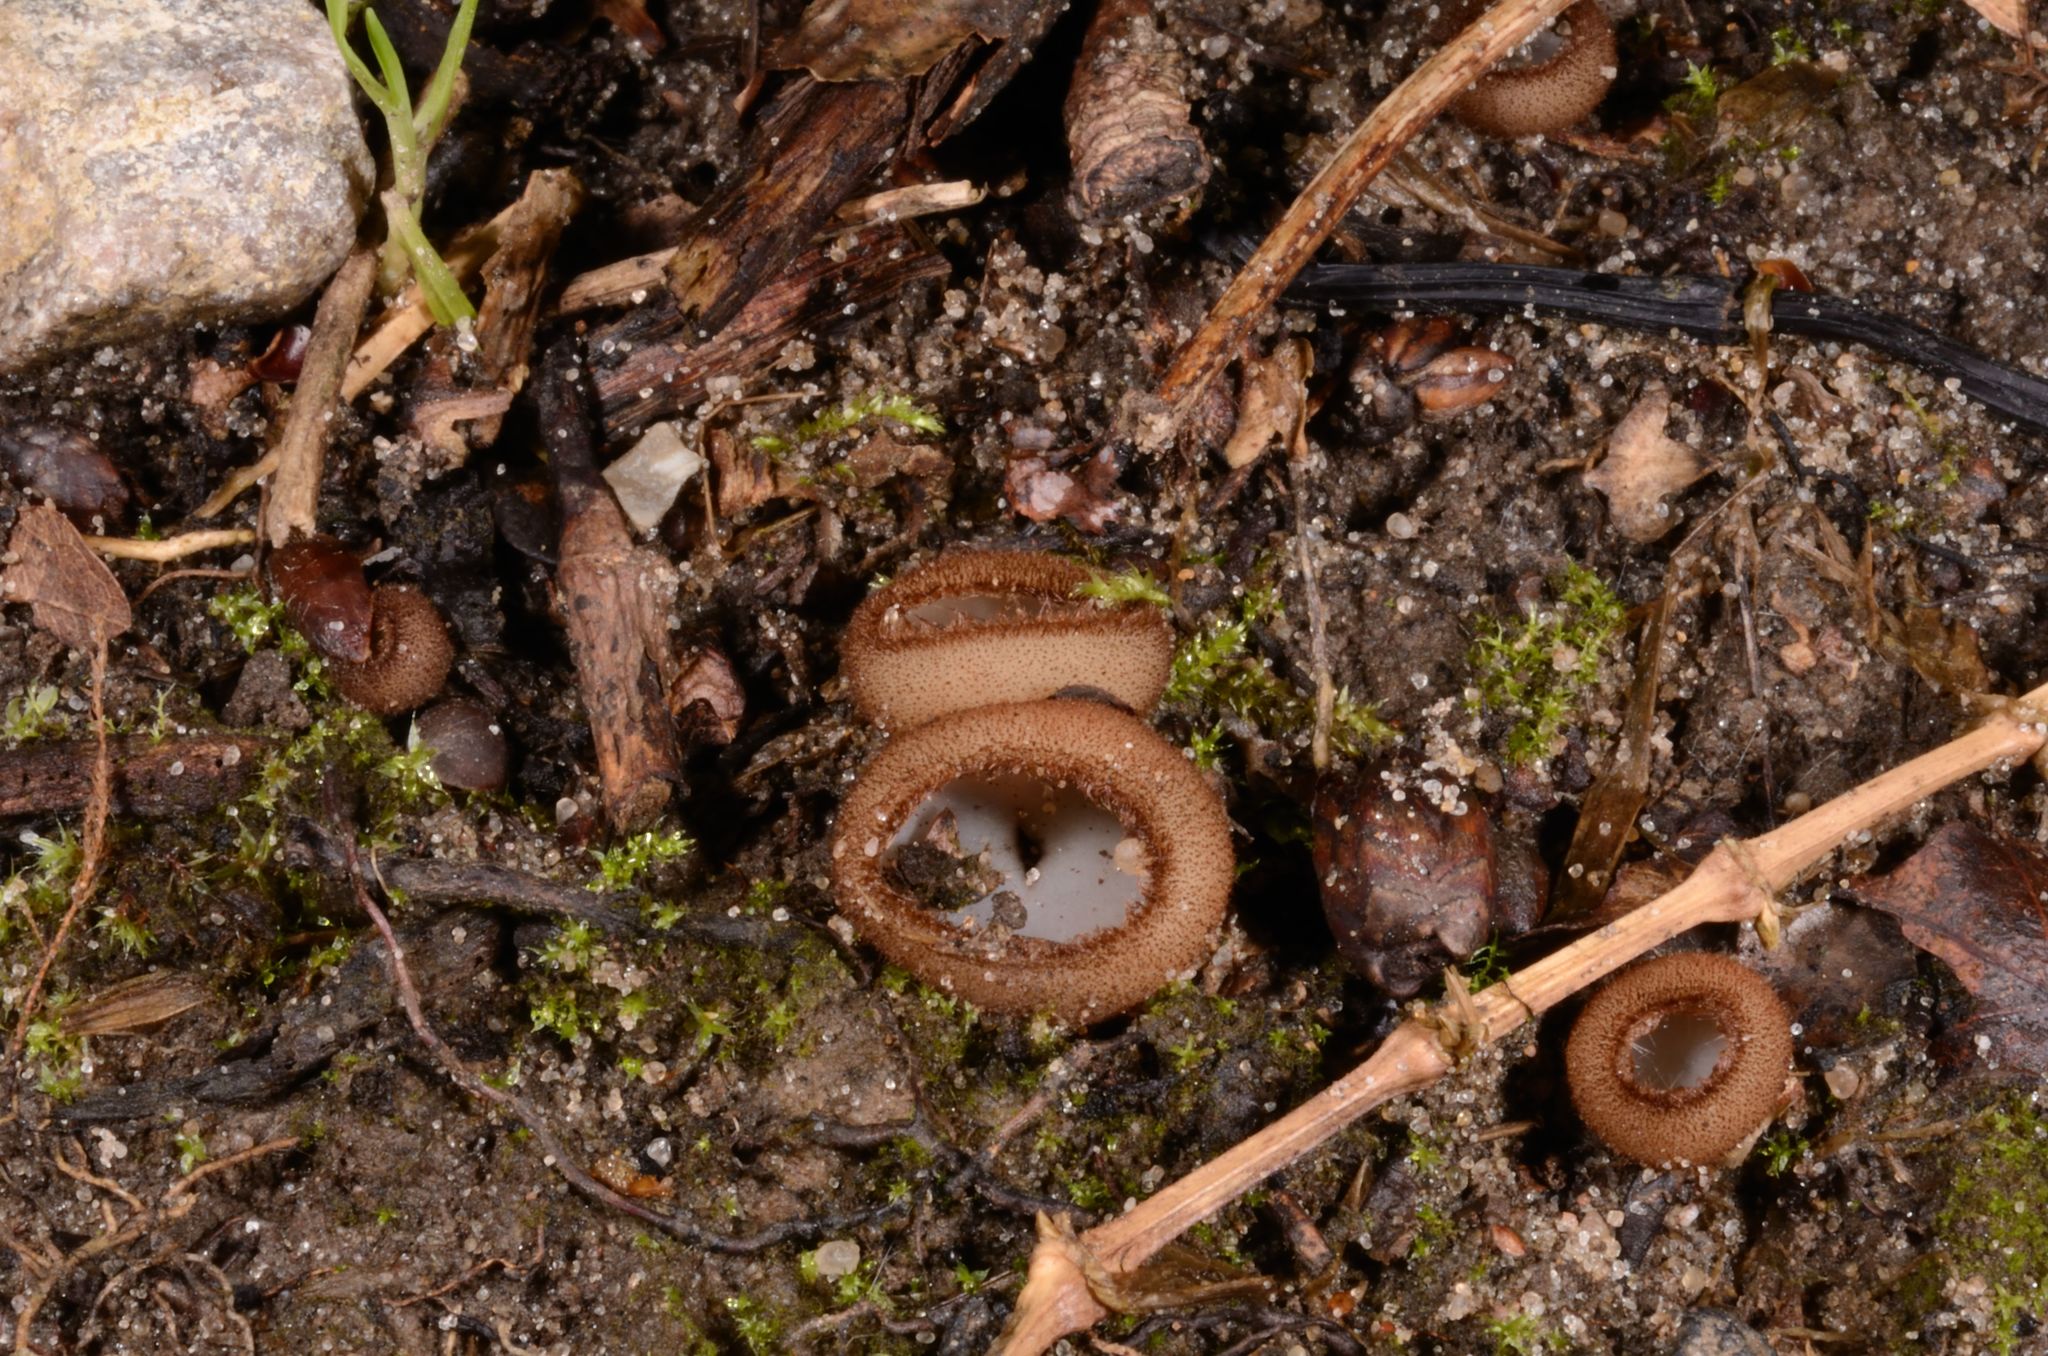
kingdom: Fungi
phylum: Ascomycota
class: Pezizomycetes
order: Pezizales
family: Pyronemataceae
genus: Humaria
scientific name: Humaria hemisphaerica
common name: Glazed cup
